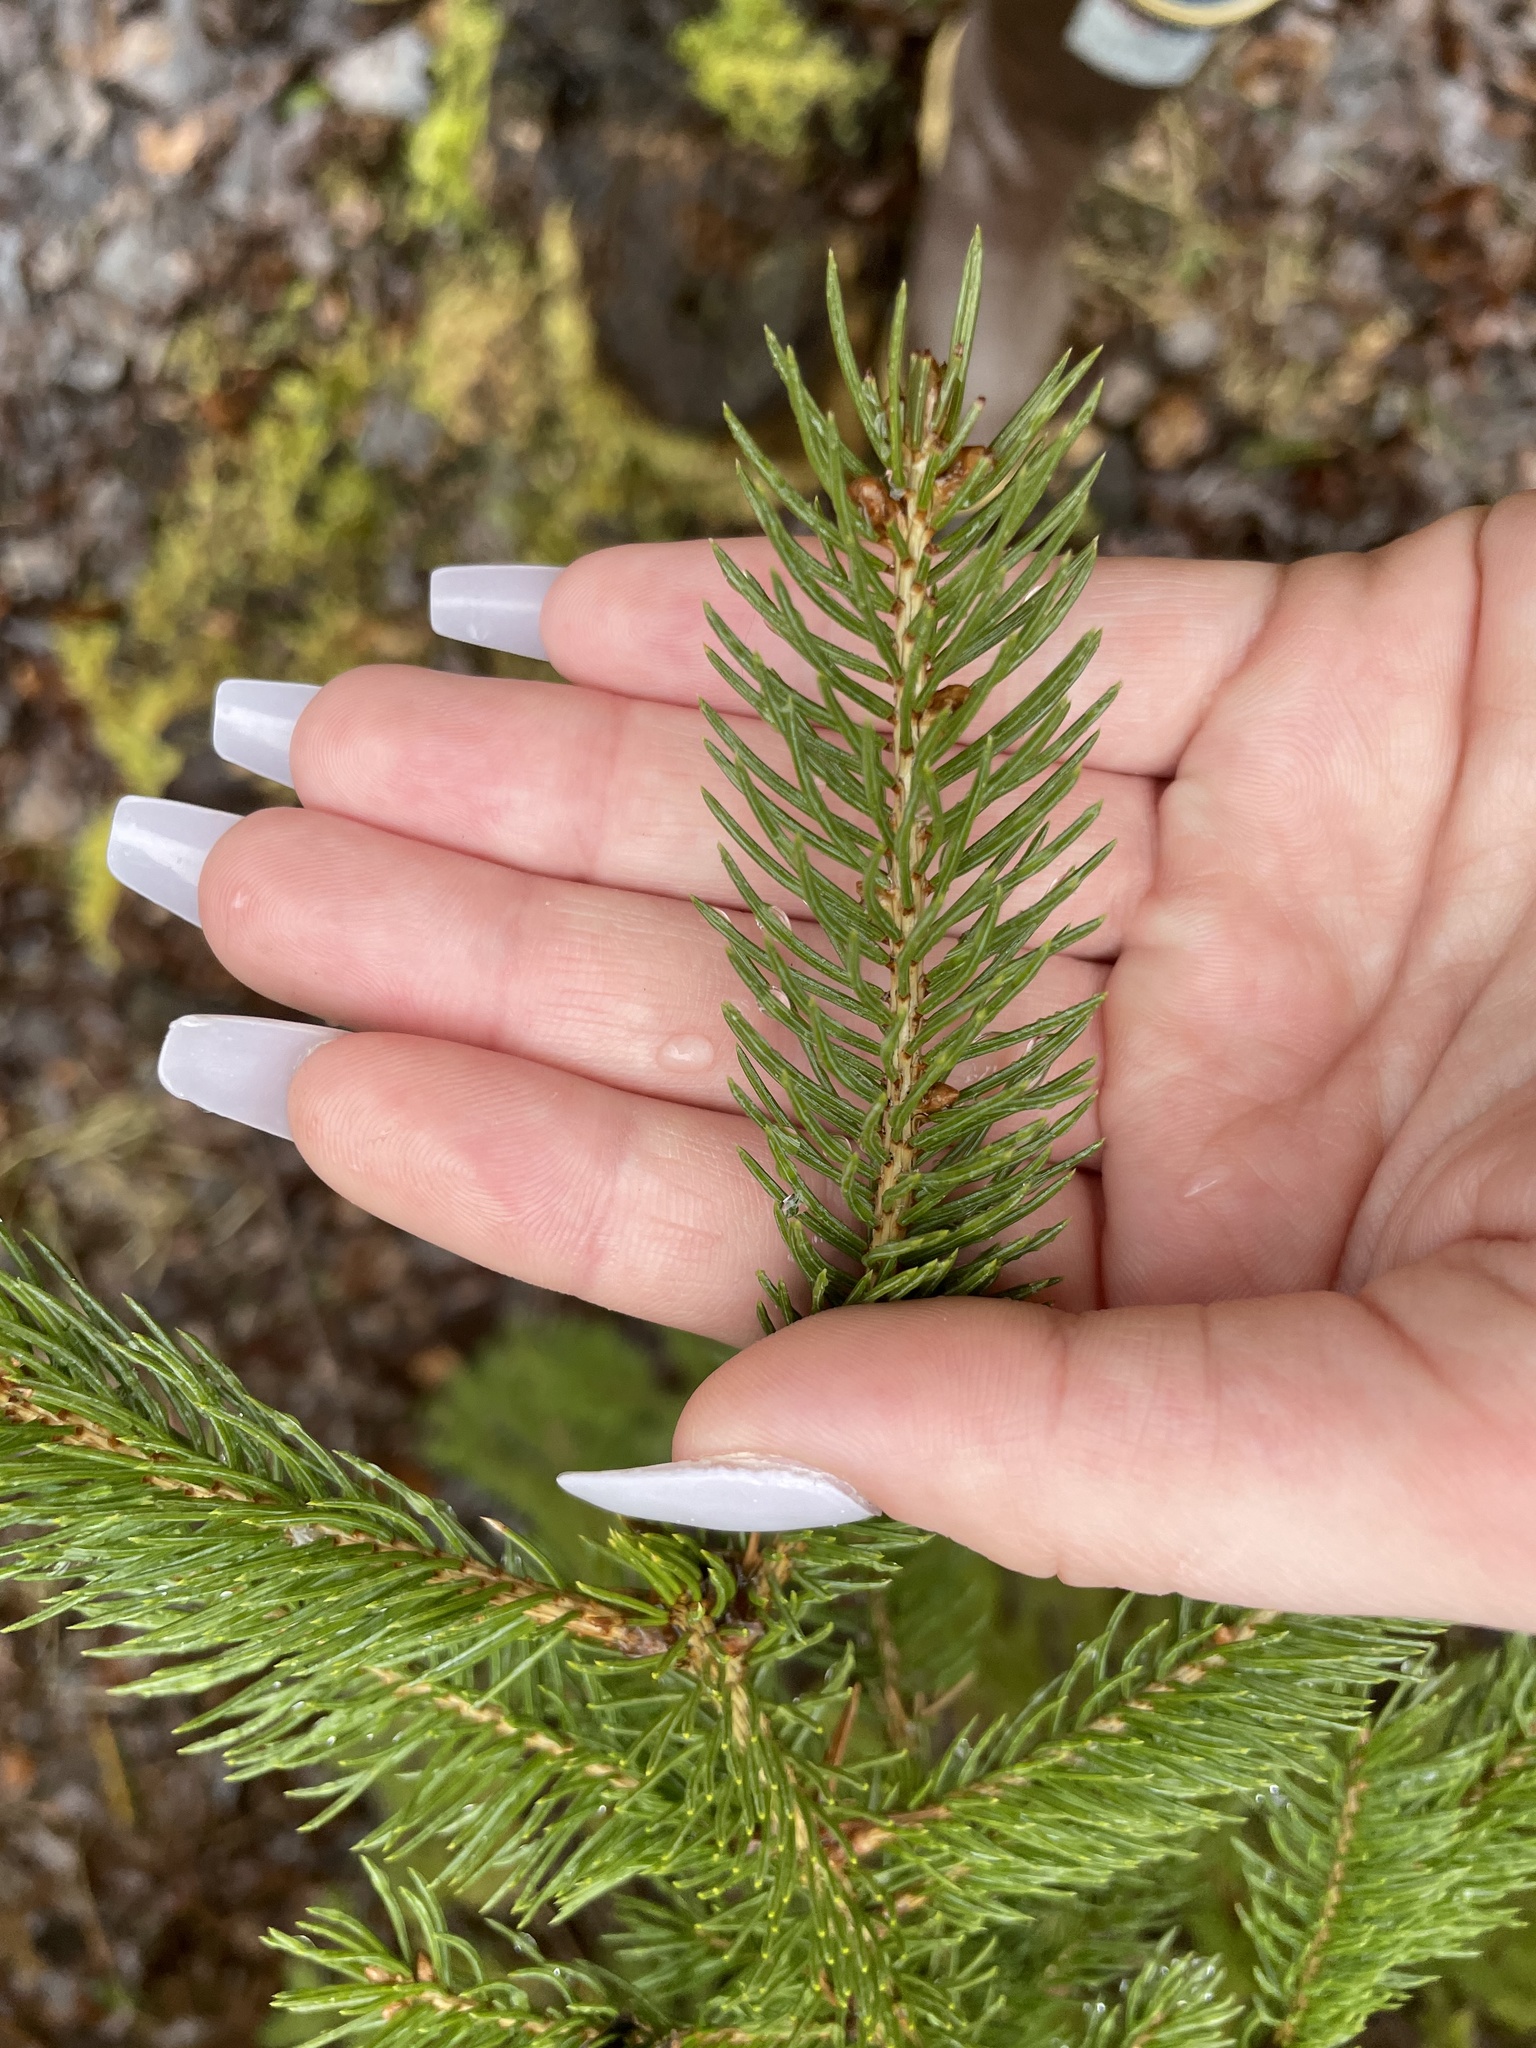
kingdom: Plantae
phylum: Tracheophyta
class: Pinopsida
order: Pinales
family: Pinaceae
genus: Picea
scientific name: Picea glauca
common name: White spruce
